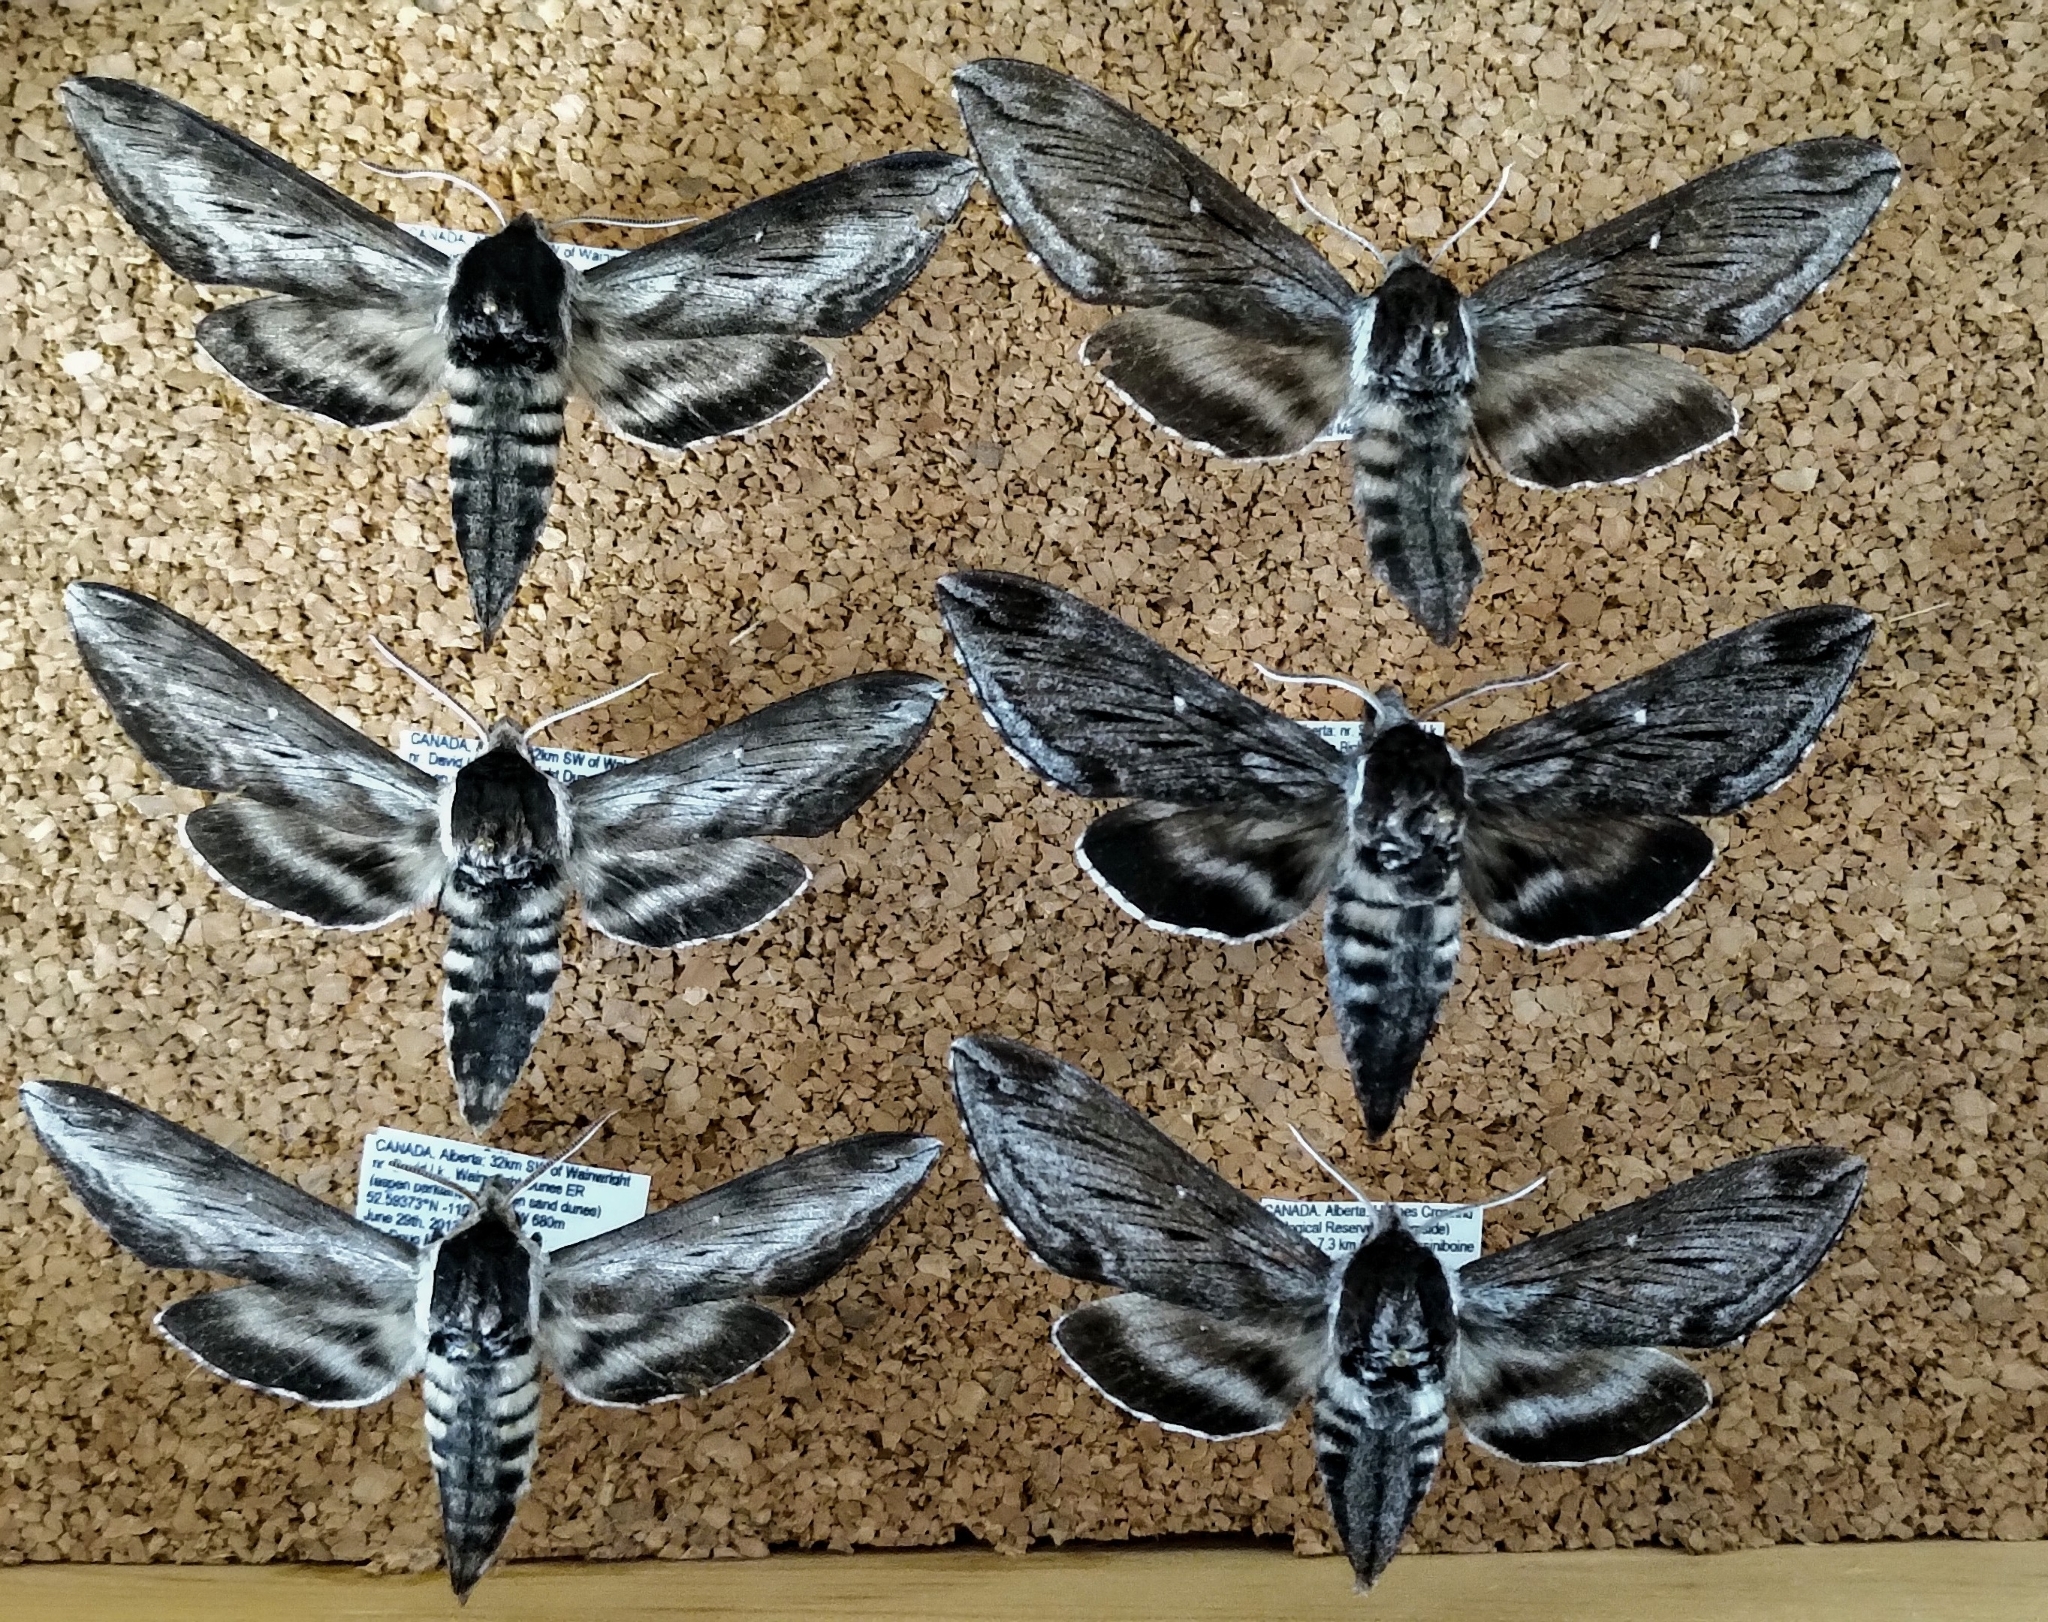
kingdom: Animalia
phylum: Arthropoda
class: Insecta
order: Lepidoptera
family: Sphingidae
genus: Sphinx
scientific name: Sphinx gordius
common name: Apple sphinx
